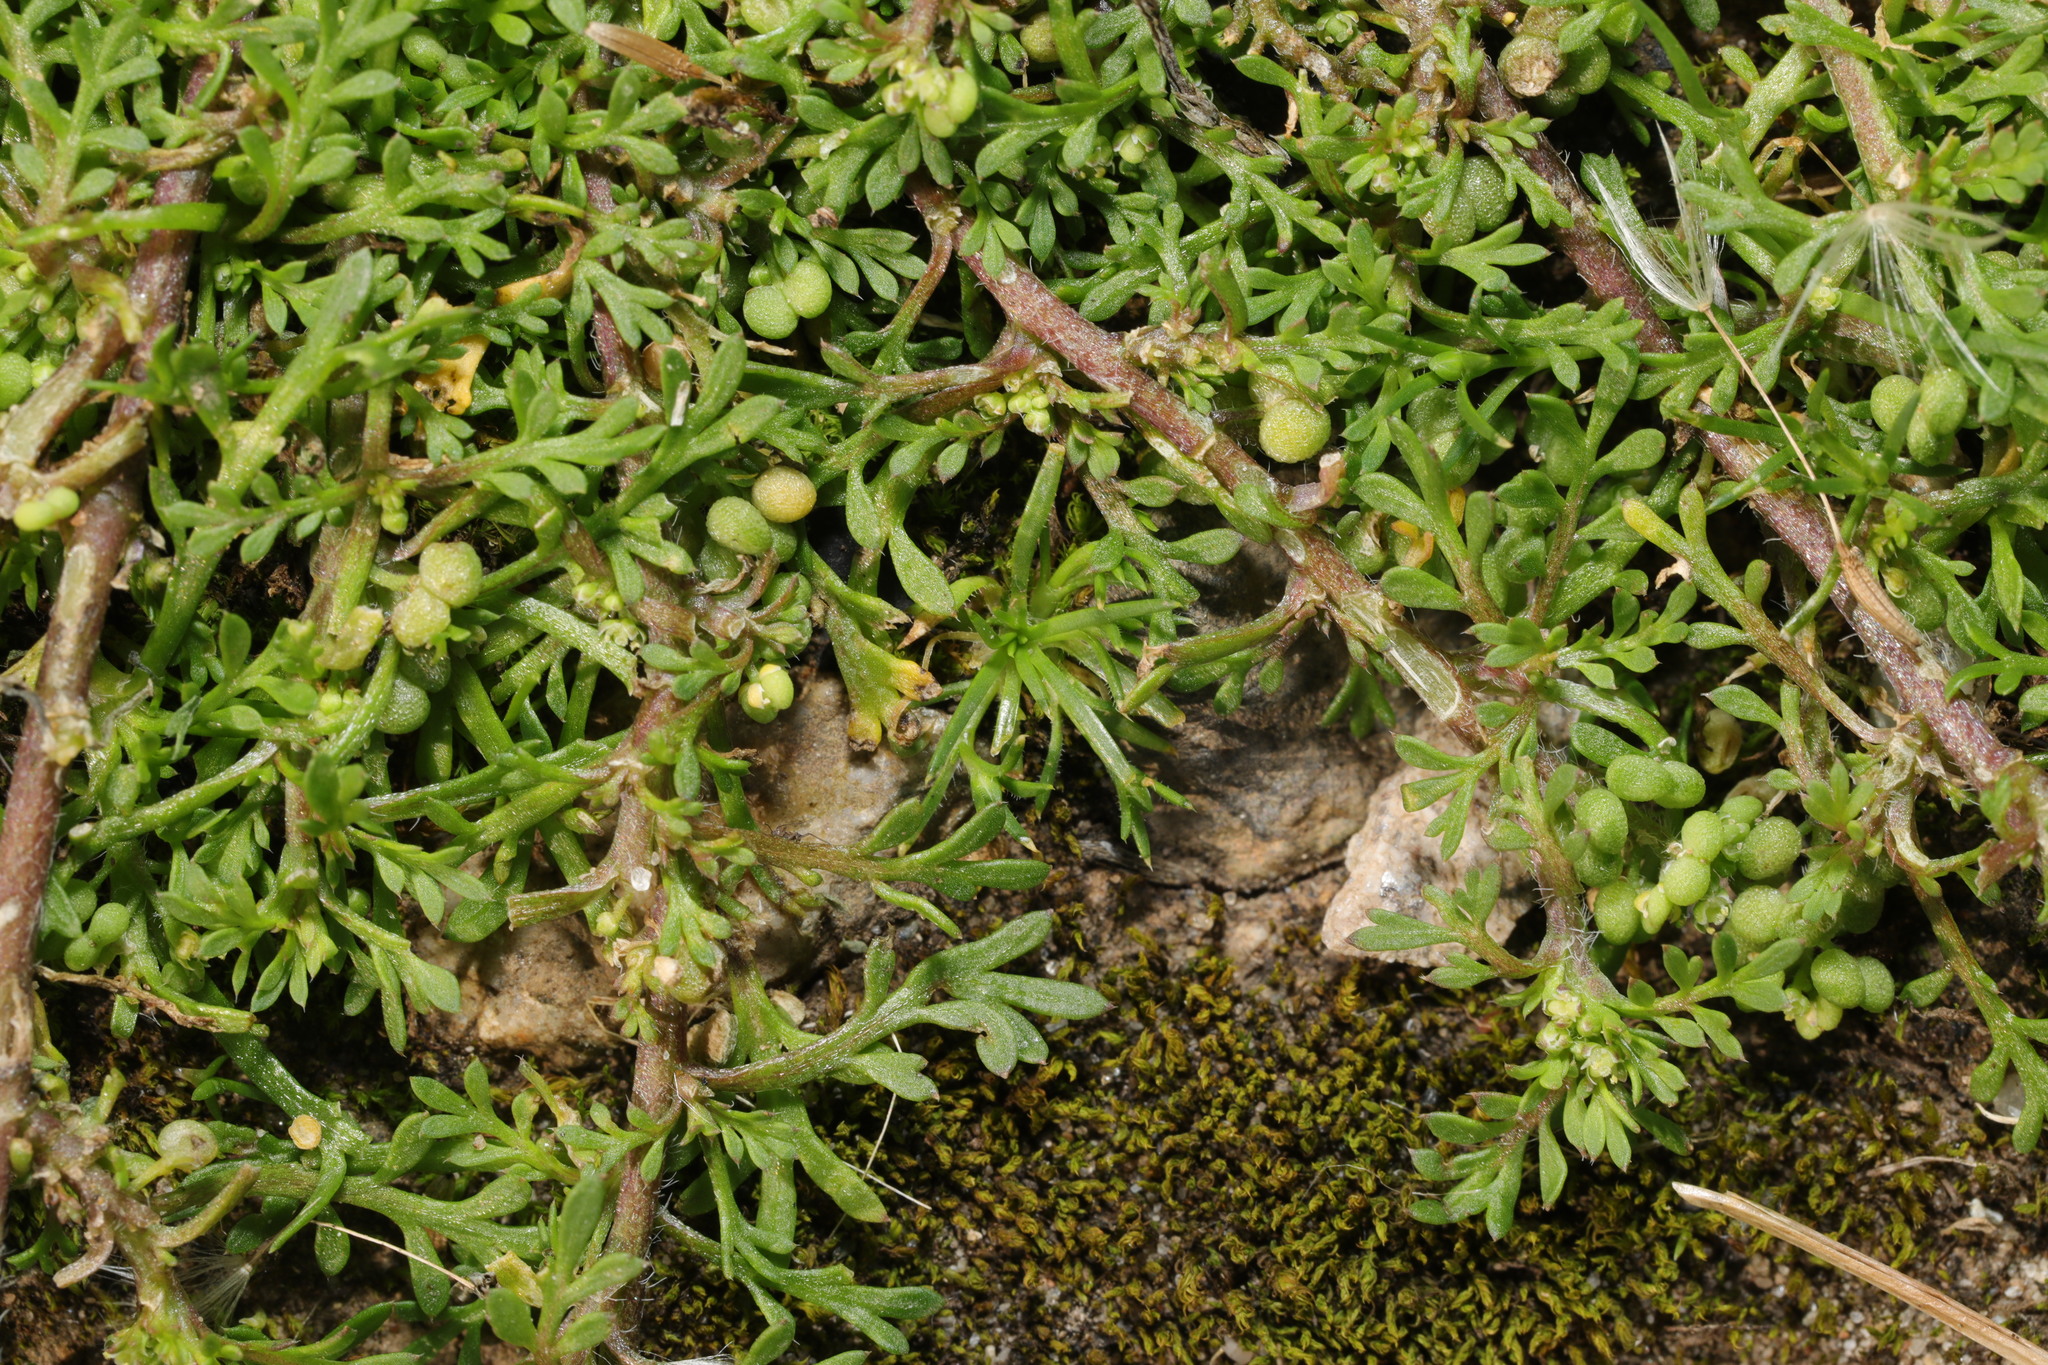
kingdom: Plantae
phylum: Tracheophyta
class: Magnoliopsida
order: Brassicales
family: Brassicaceae
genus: Lepidium
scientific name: Lepidium didymum
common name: Lesser swinecress
